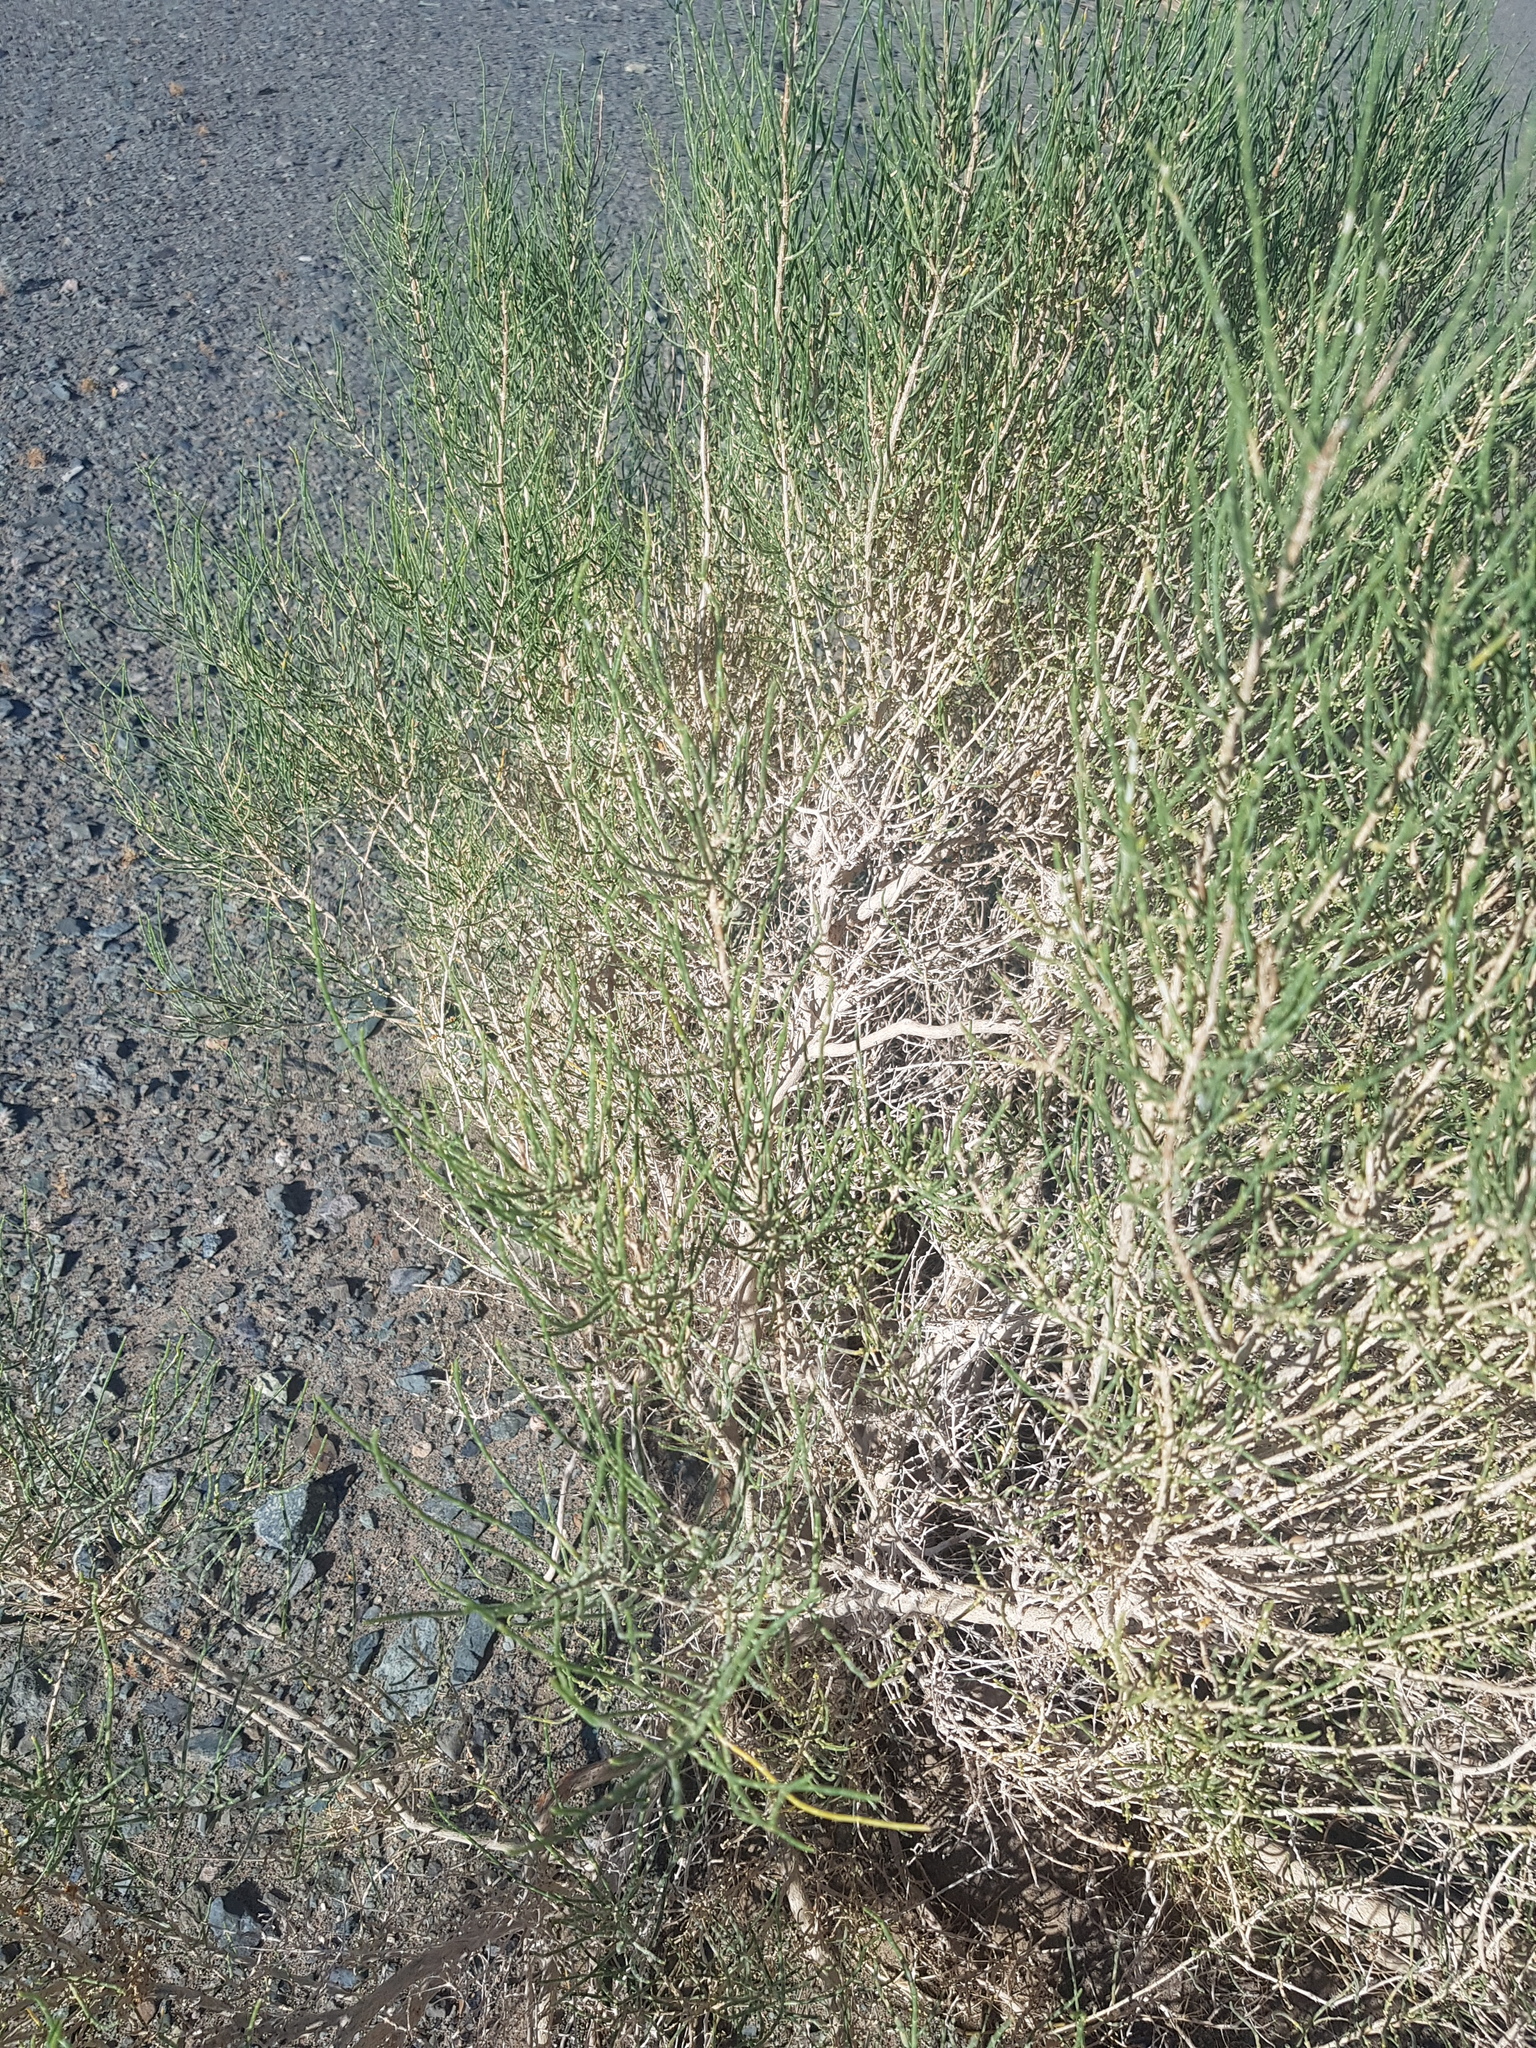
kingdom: Plantae
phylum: Tracheophyta
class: Magnoliopsida
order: Caryophyllales
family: Amaranthaceae
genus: Haloxylon
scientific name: Haloxylon ammodendron
